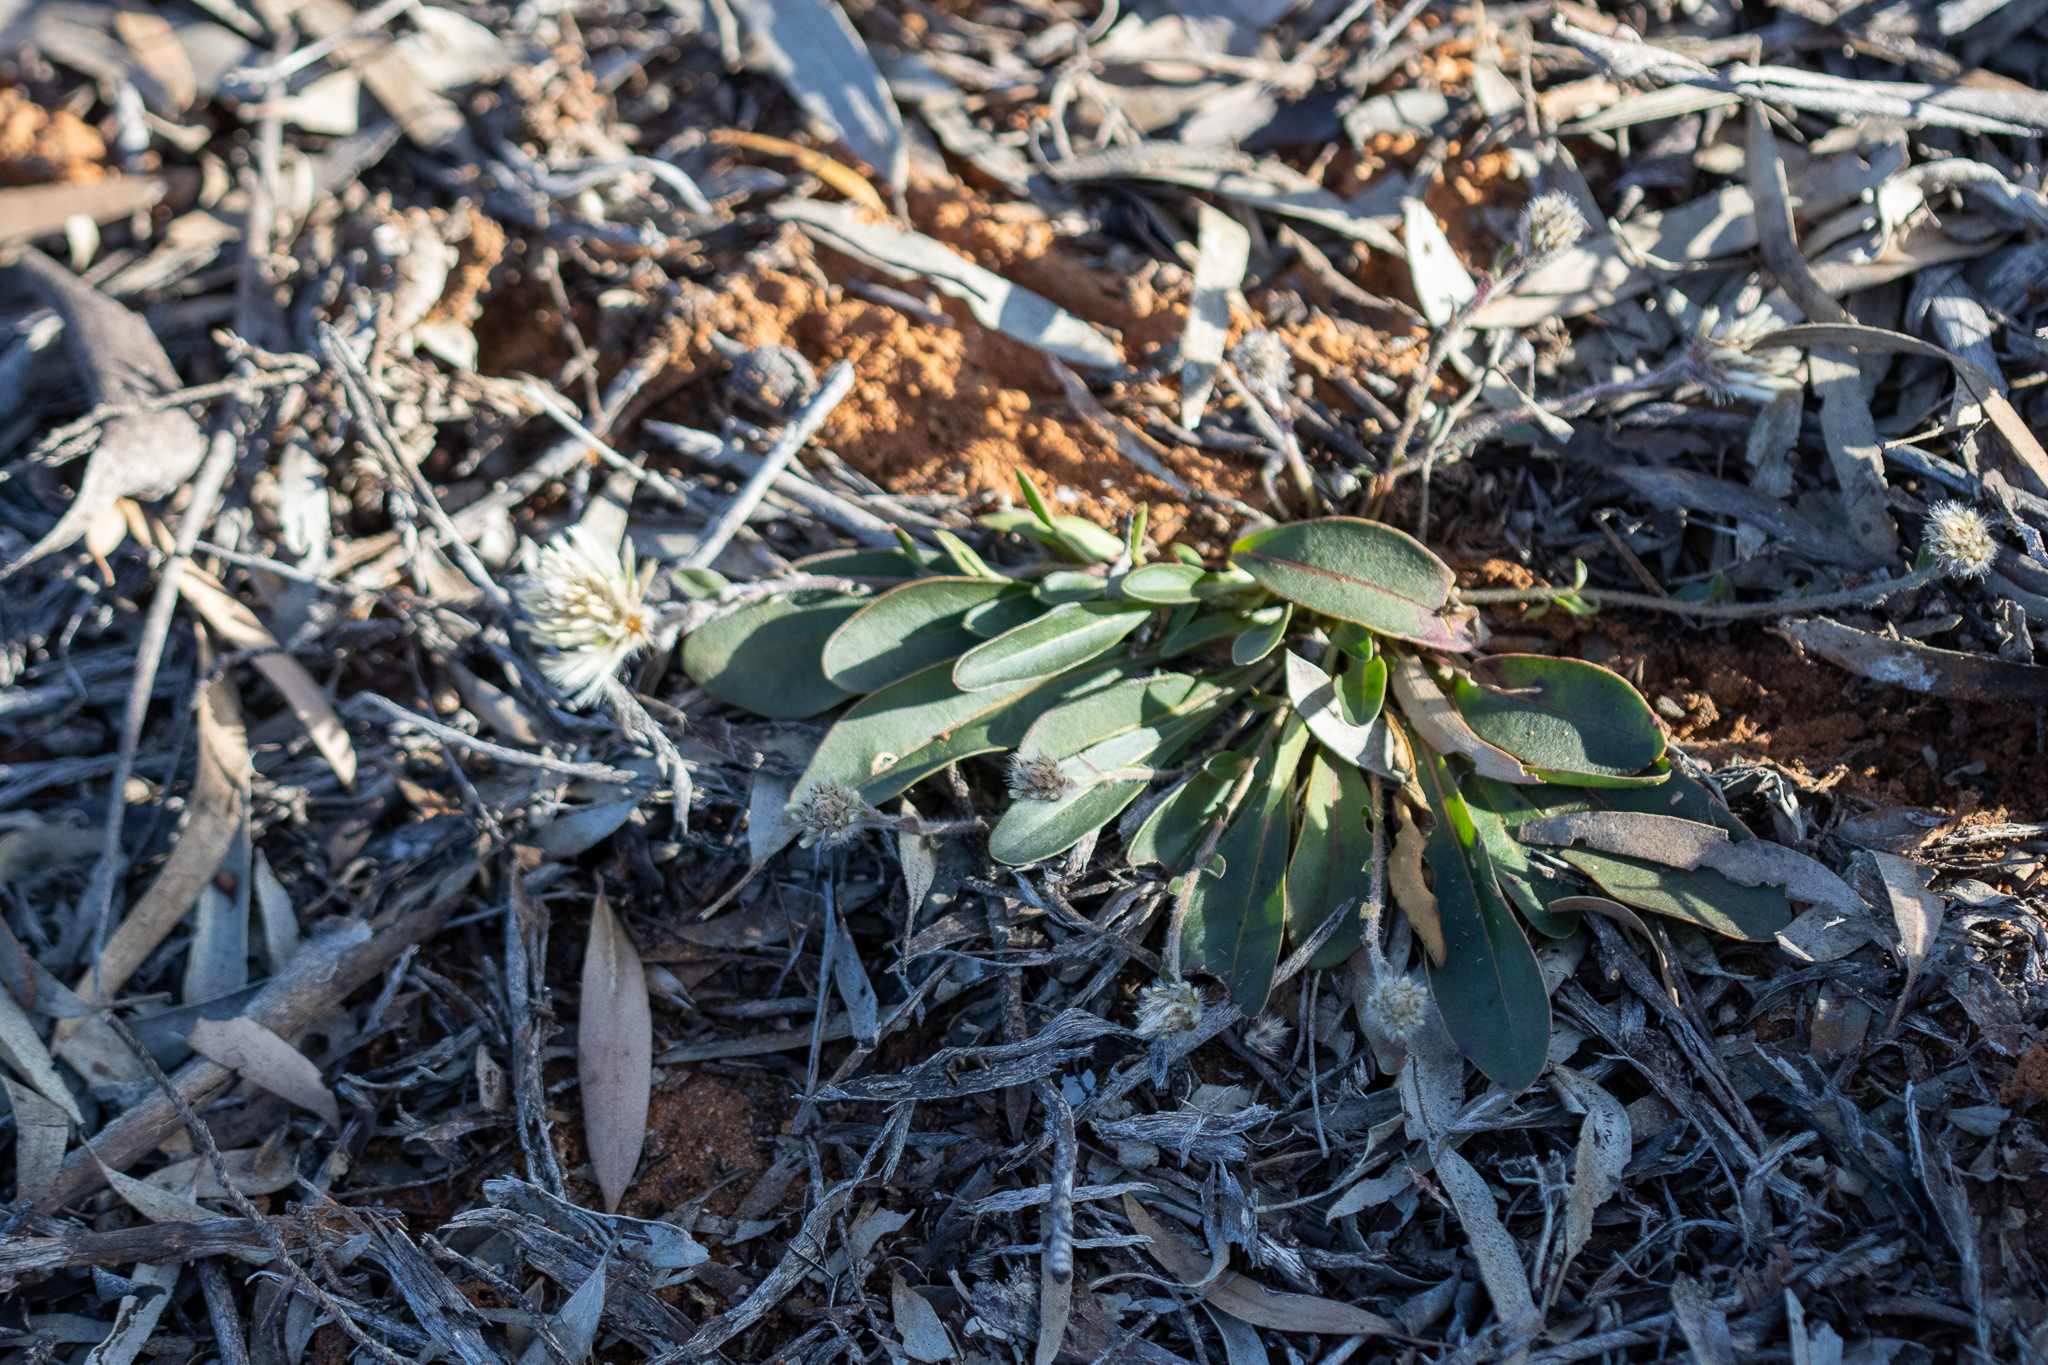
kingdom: Plantae
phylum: Tracheophyta
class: Magnoliopsida
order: Caryophyllales
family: Amaranthaceae
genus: Ptilotus
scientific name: Ptilotus seminudus
